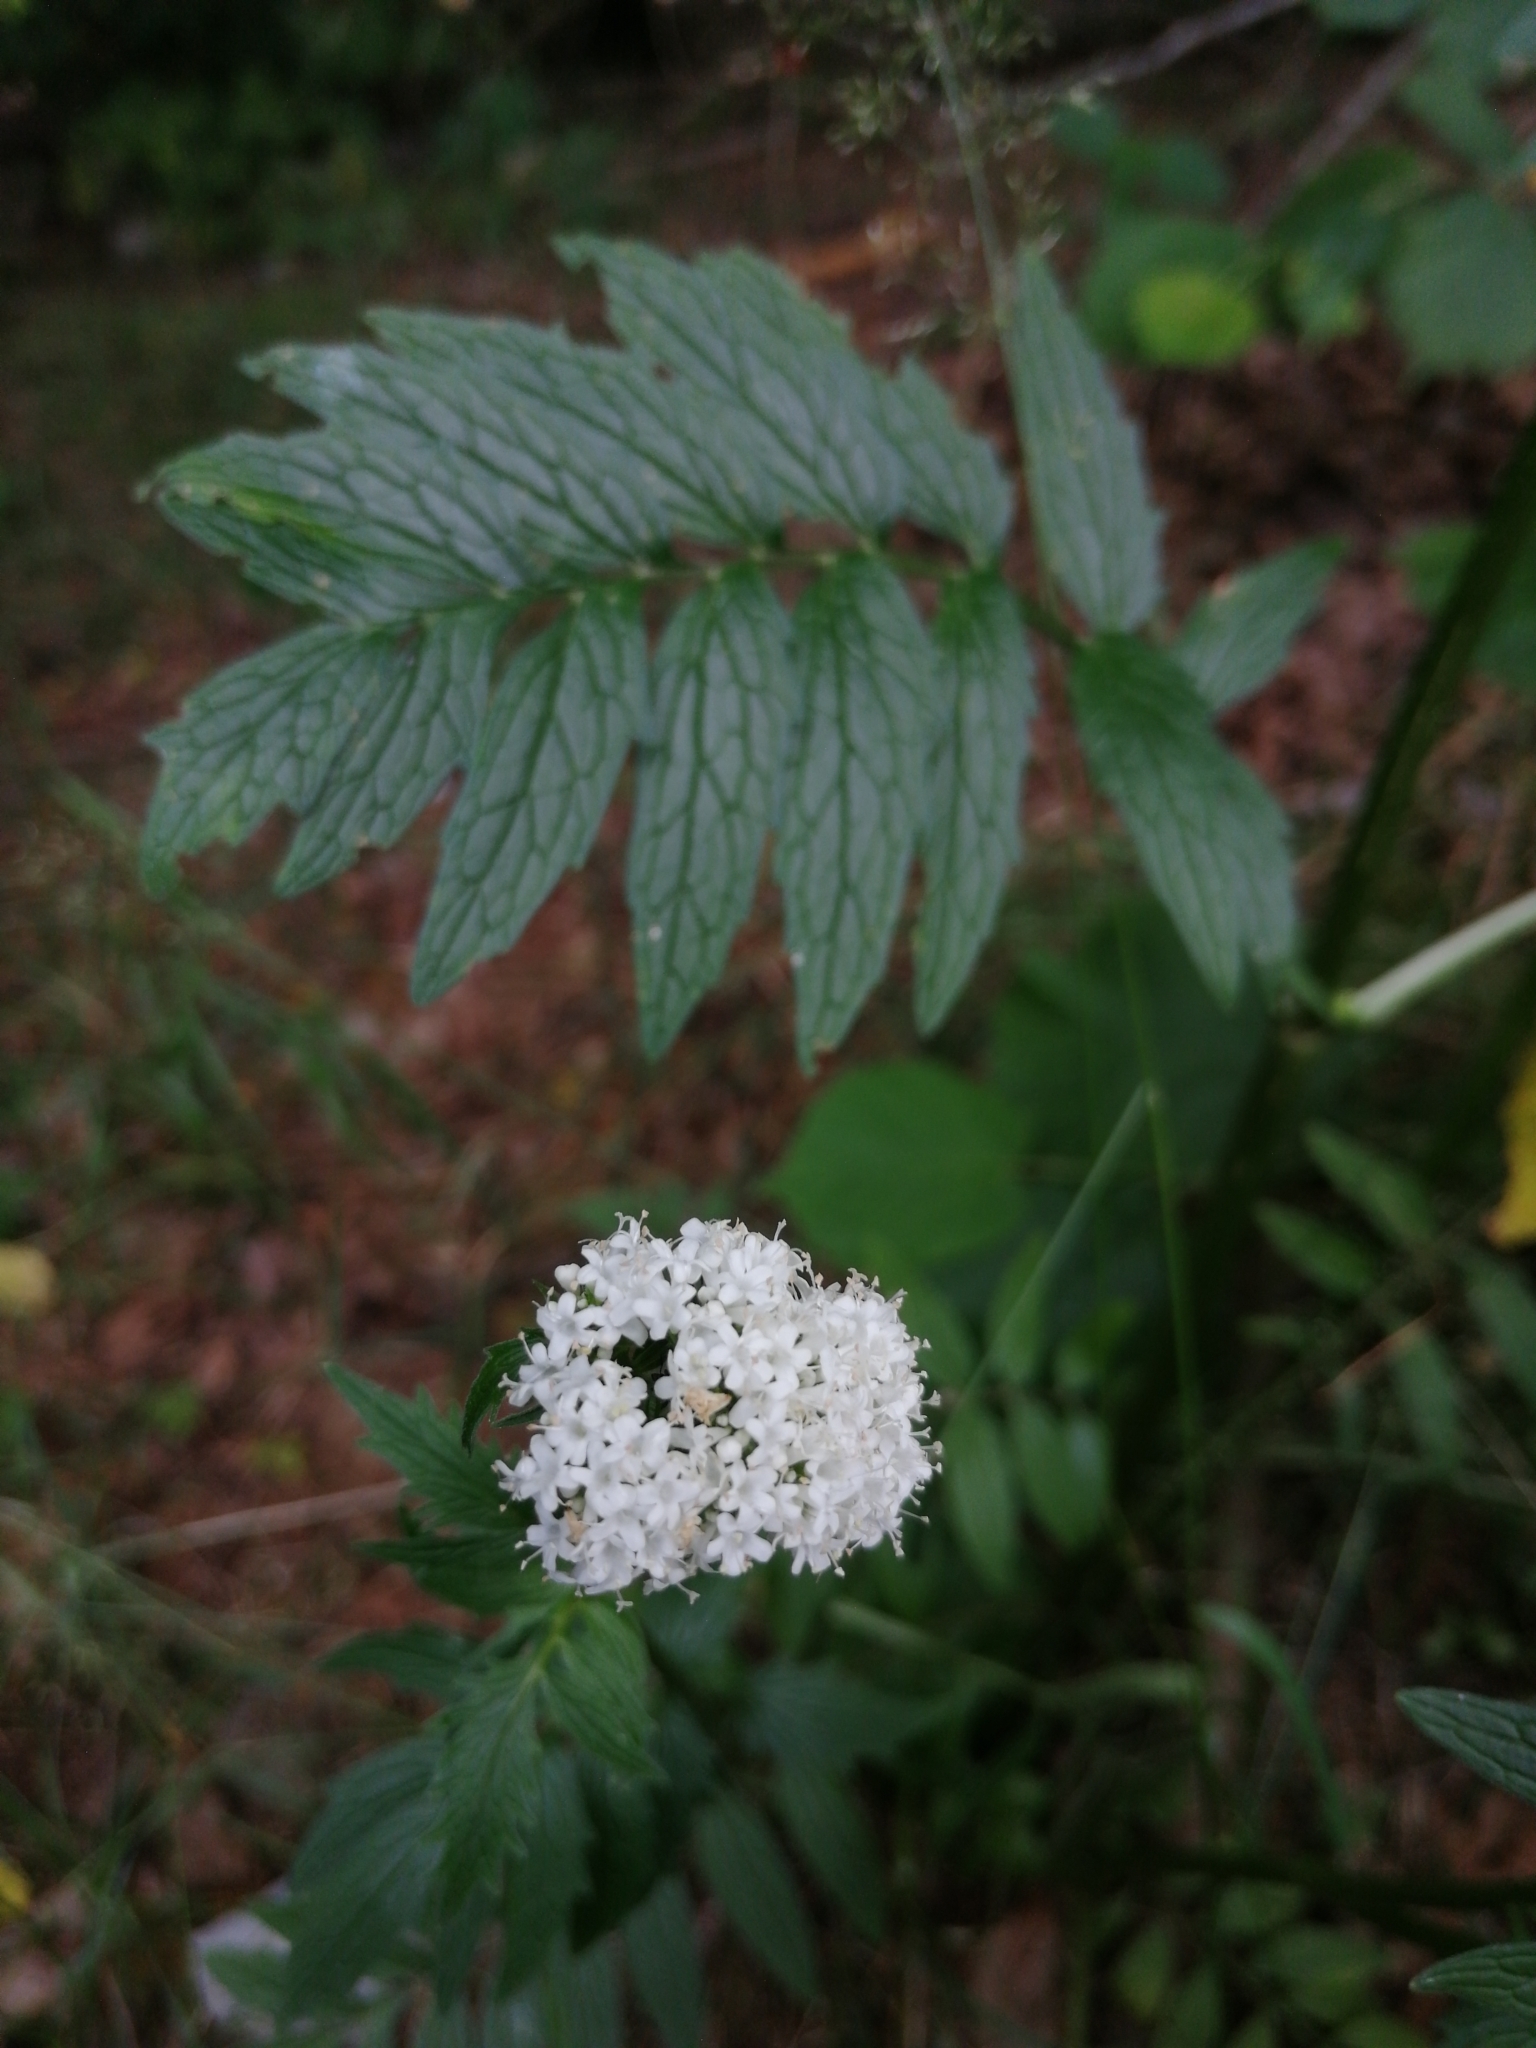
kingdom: Plantae
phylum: Tracheophyta
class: Magnoliopsida
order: Dipsacales
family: Caprifoliaceae
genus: Valeriana
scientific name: Valeriana officinalis
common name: Common valerian
